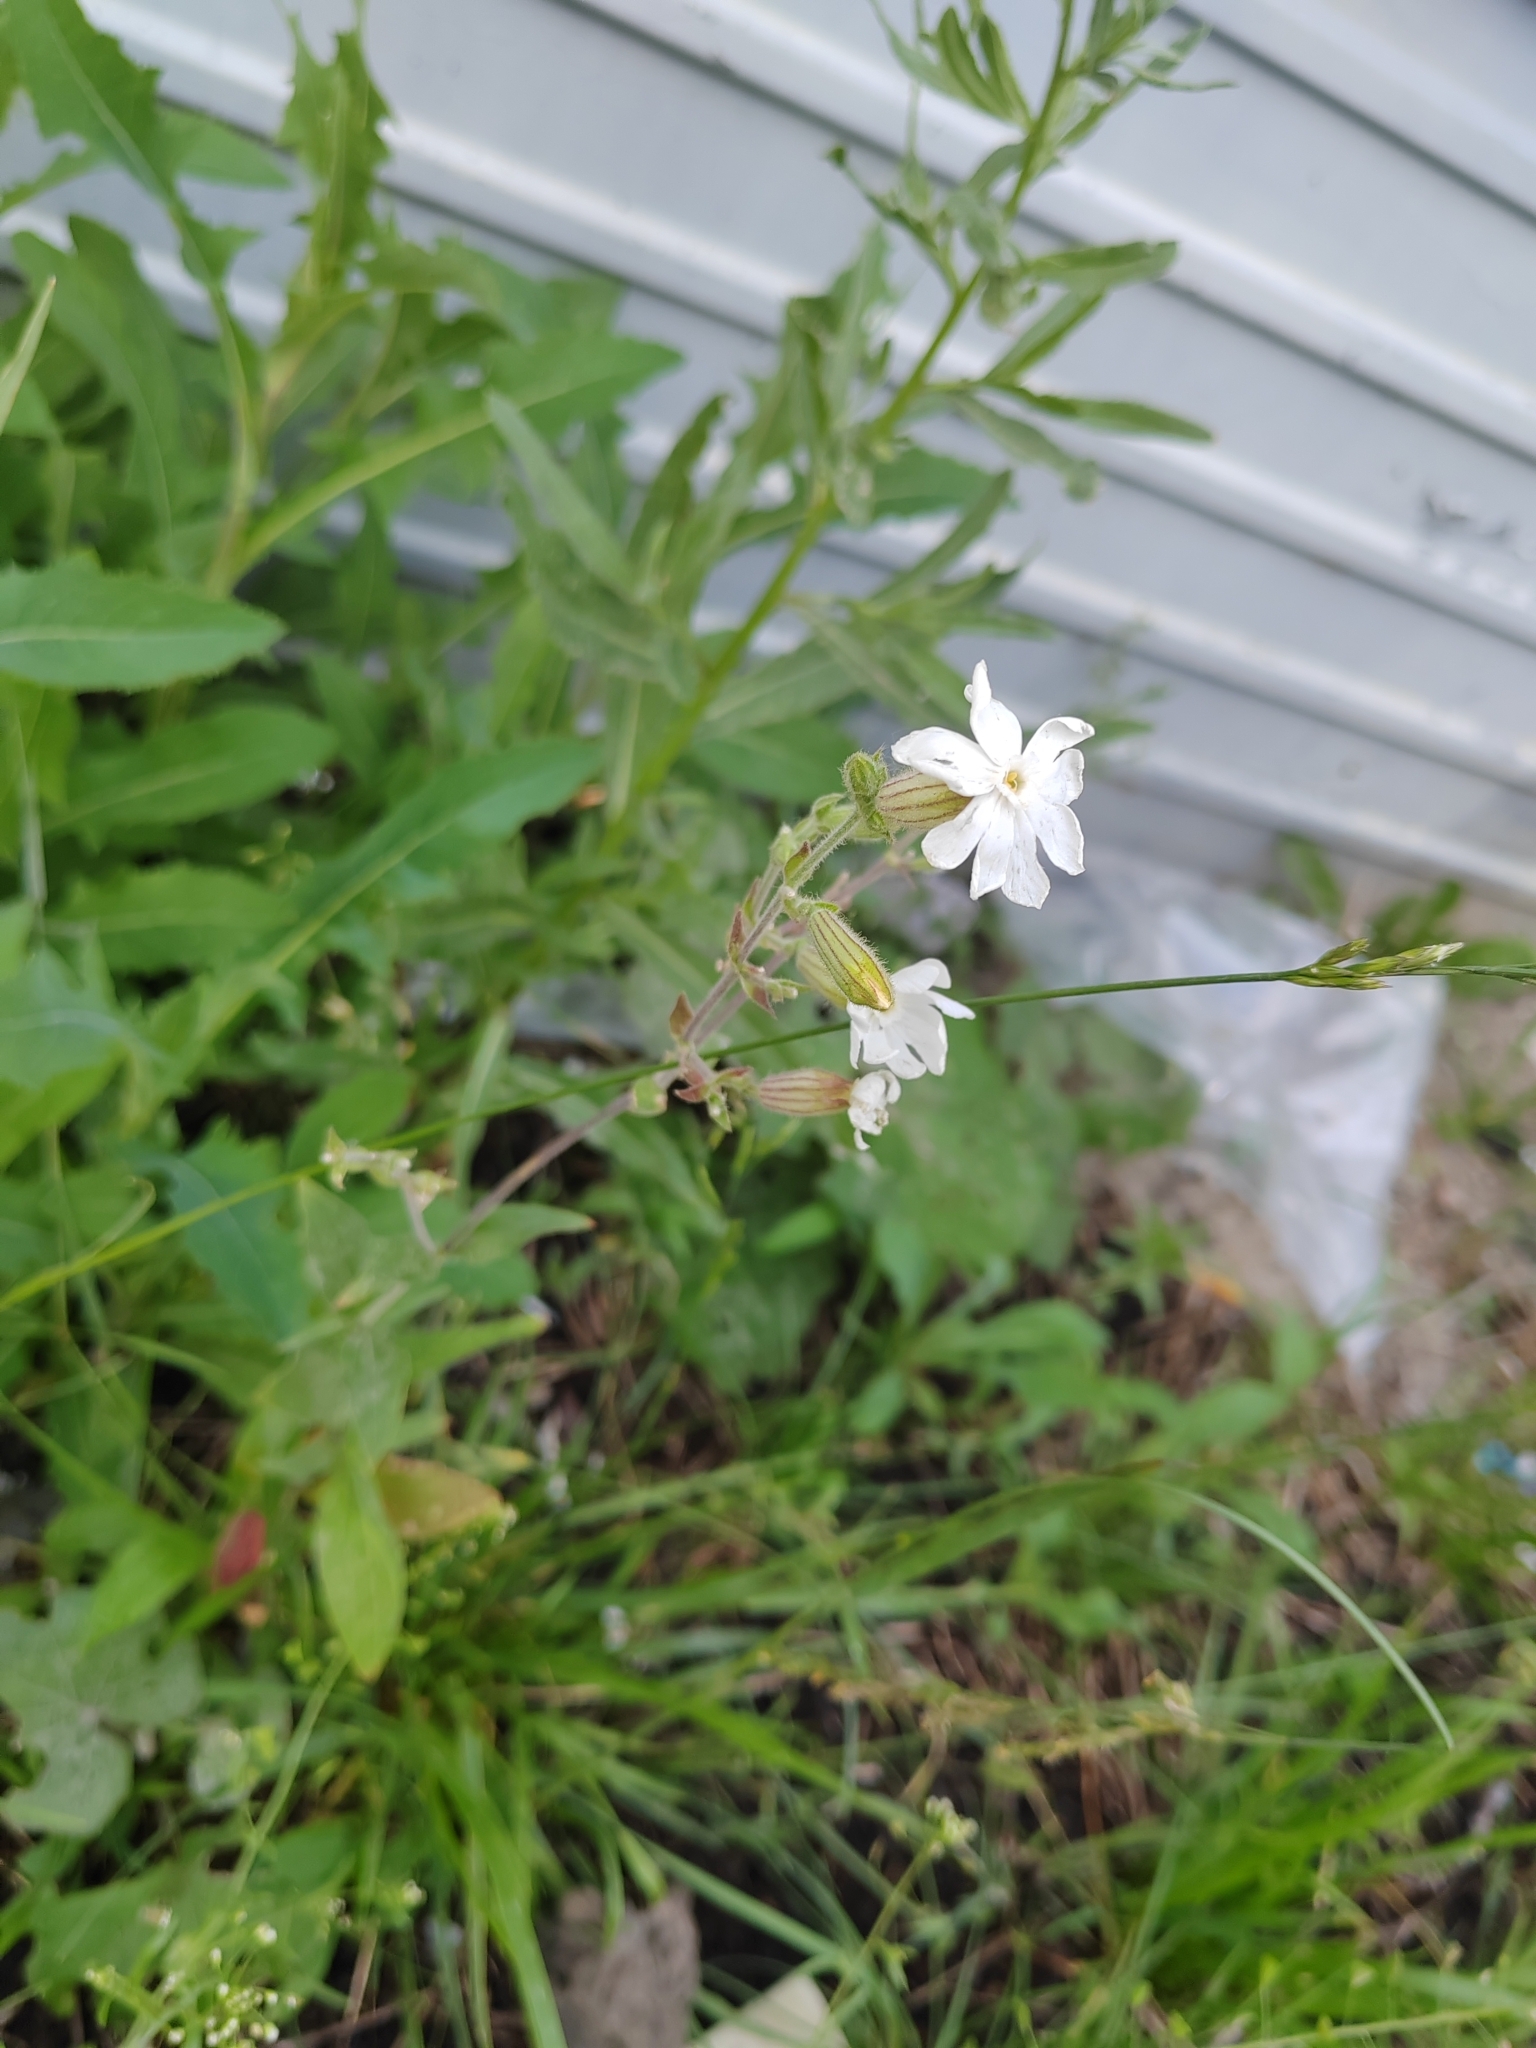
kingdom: Plantae
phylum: Tracheophyta
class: Magnoliopsida
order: Caryophyllales
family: Caryophyllaceae
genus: Silene
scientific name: Silene latifolia
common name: White campion
